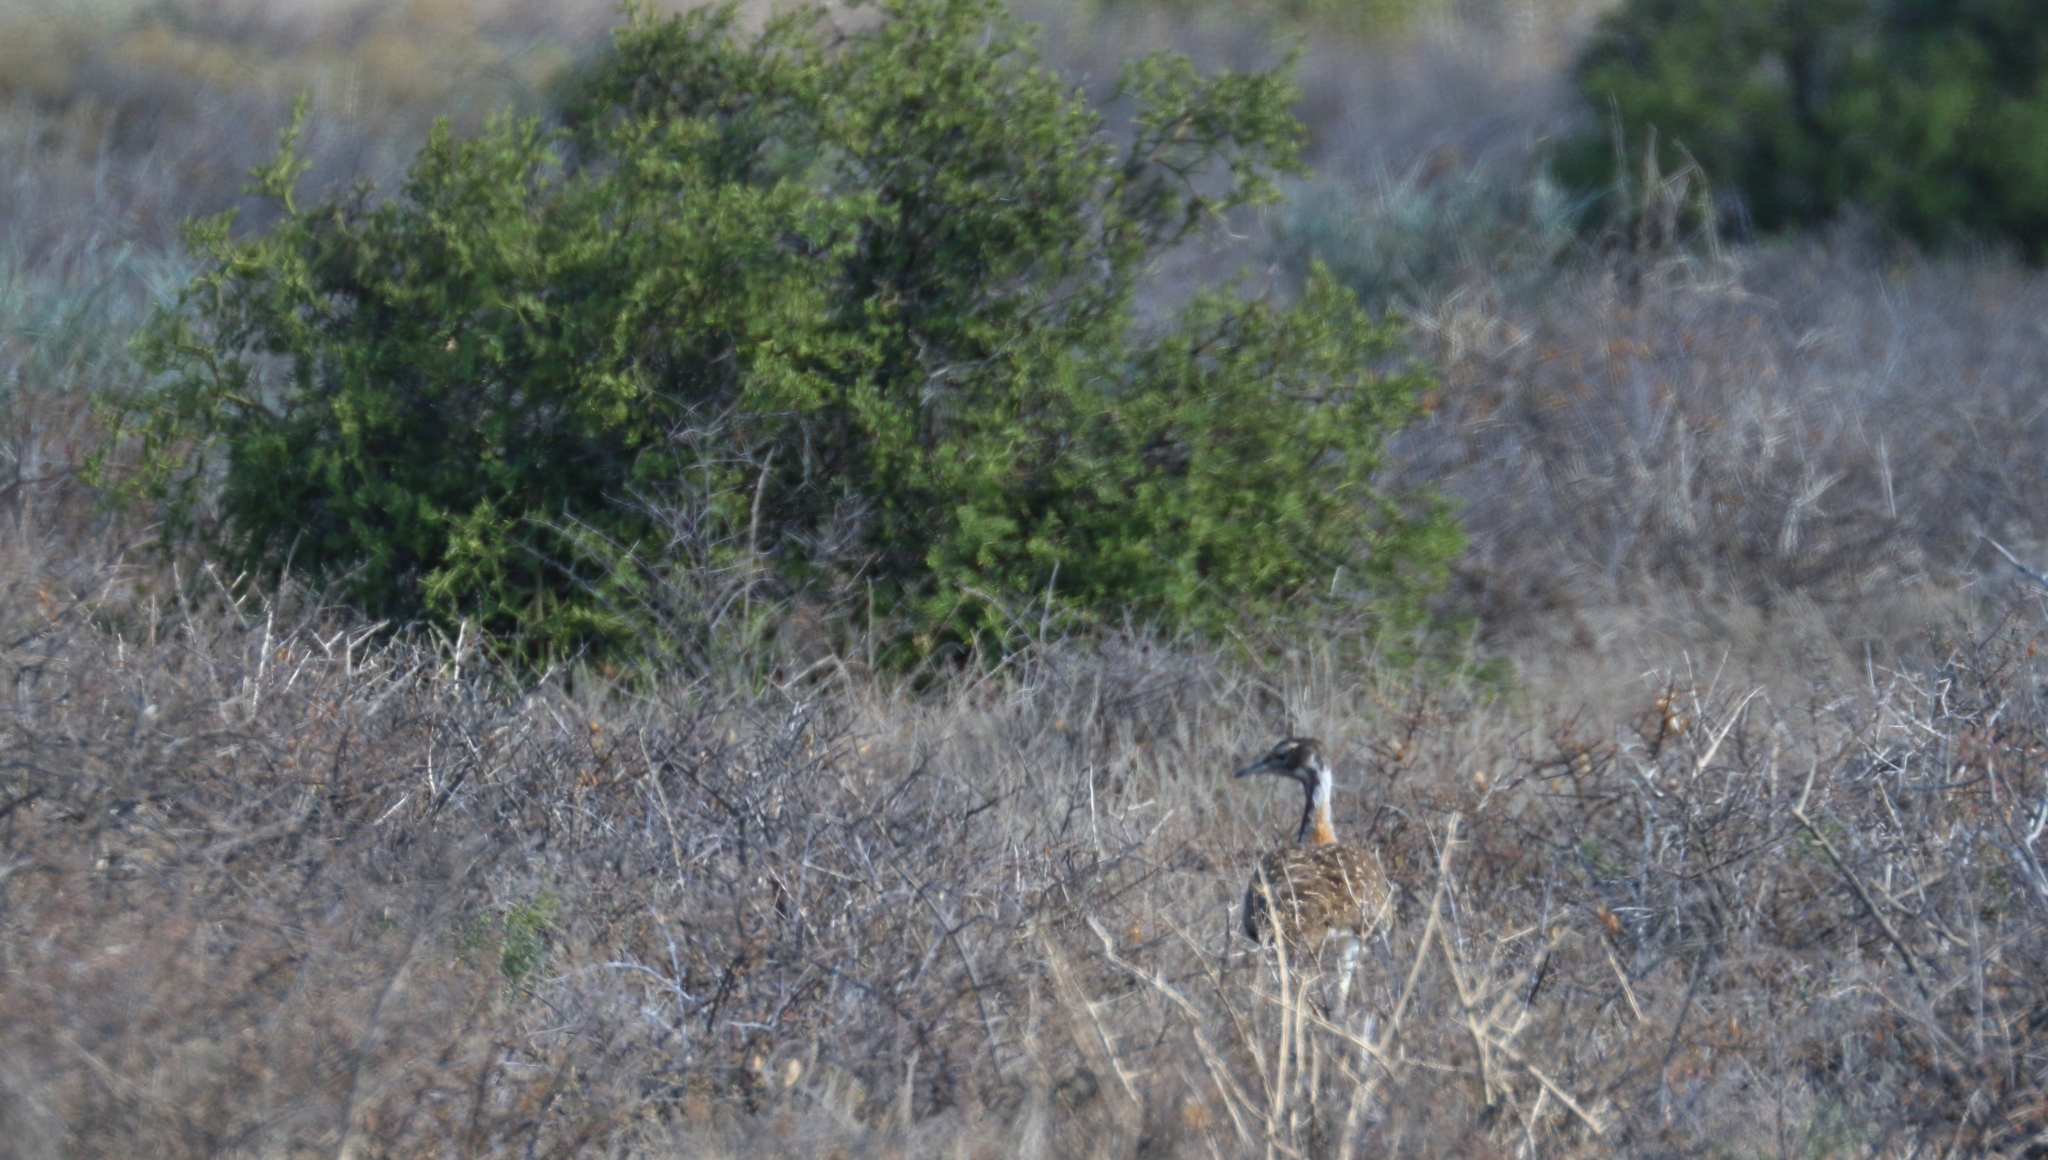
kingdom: Animalia
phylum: Chordata
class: Aves
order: Otidiformes
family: Otididae
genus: Neotis
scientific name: Neotis ludwigii
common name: Ludwig's bustard
